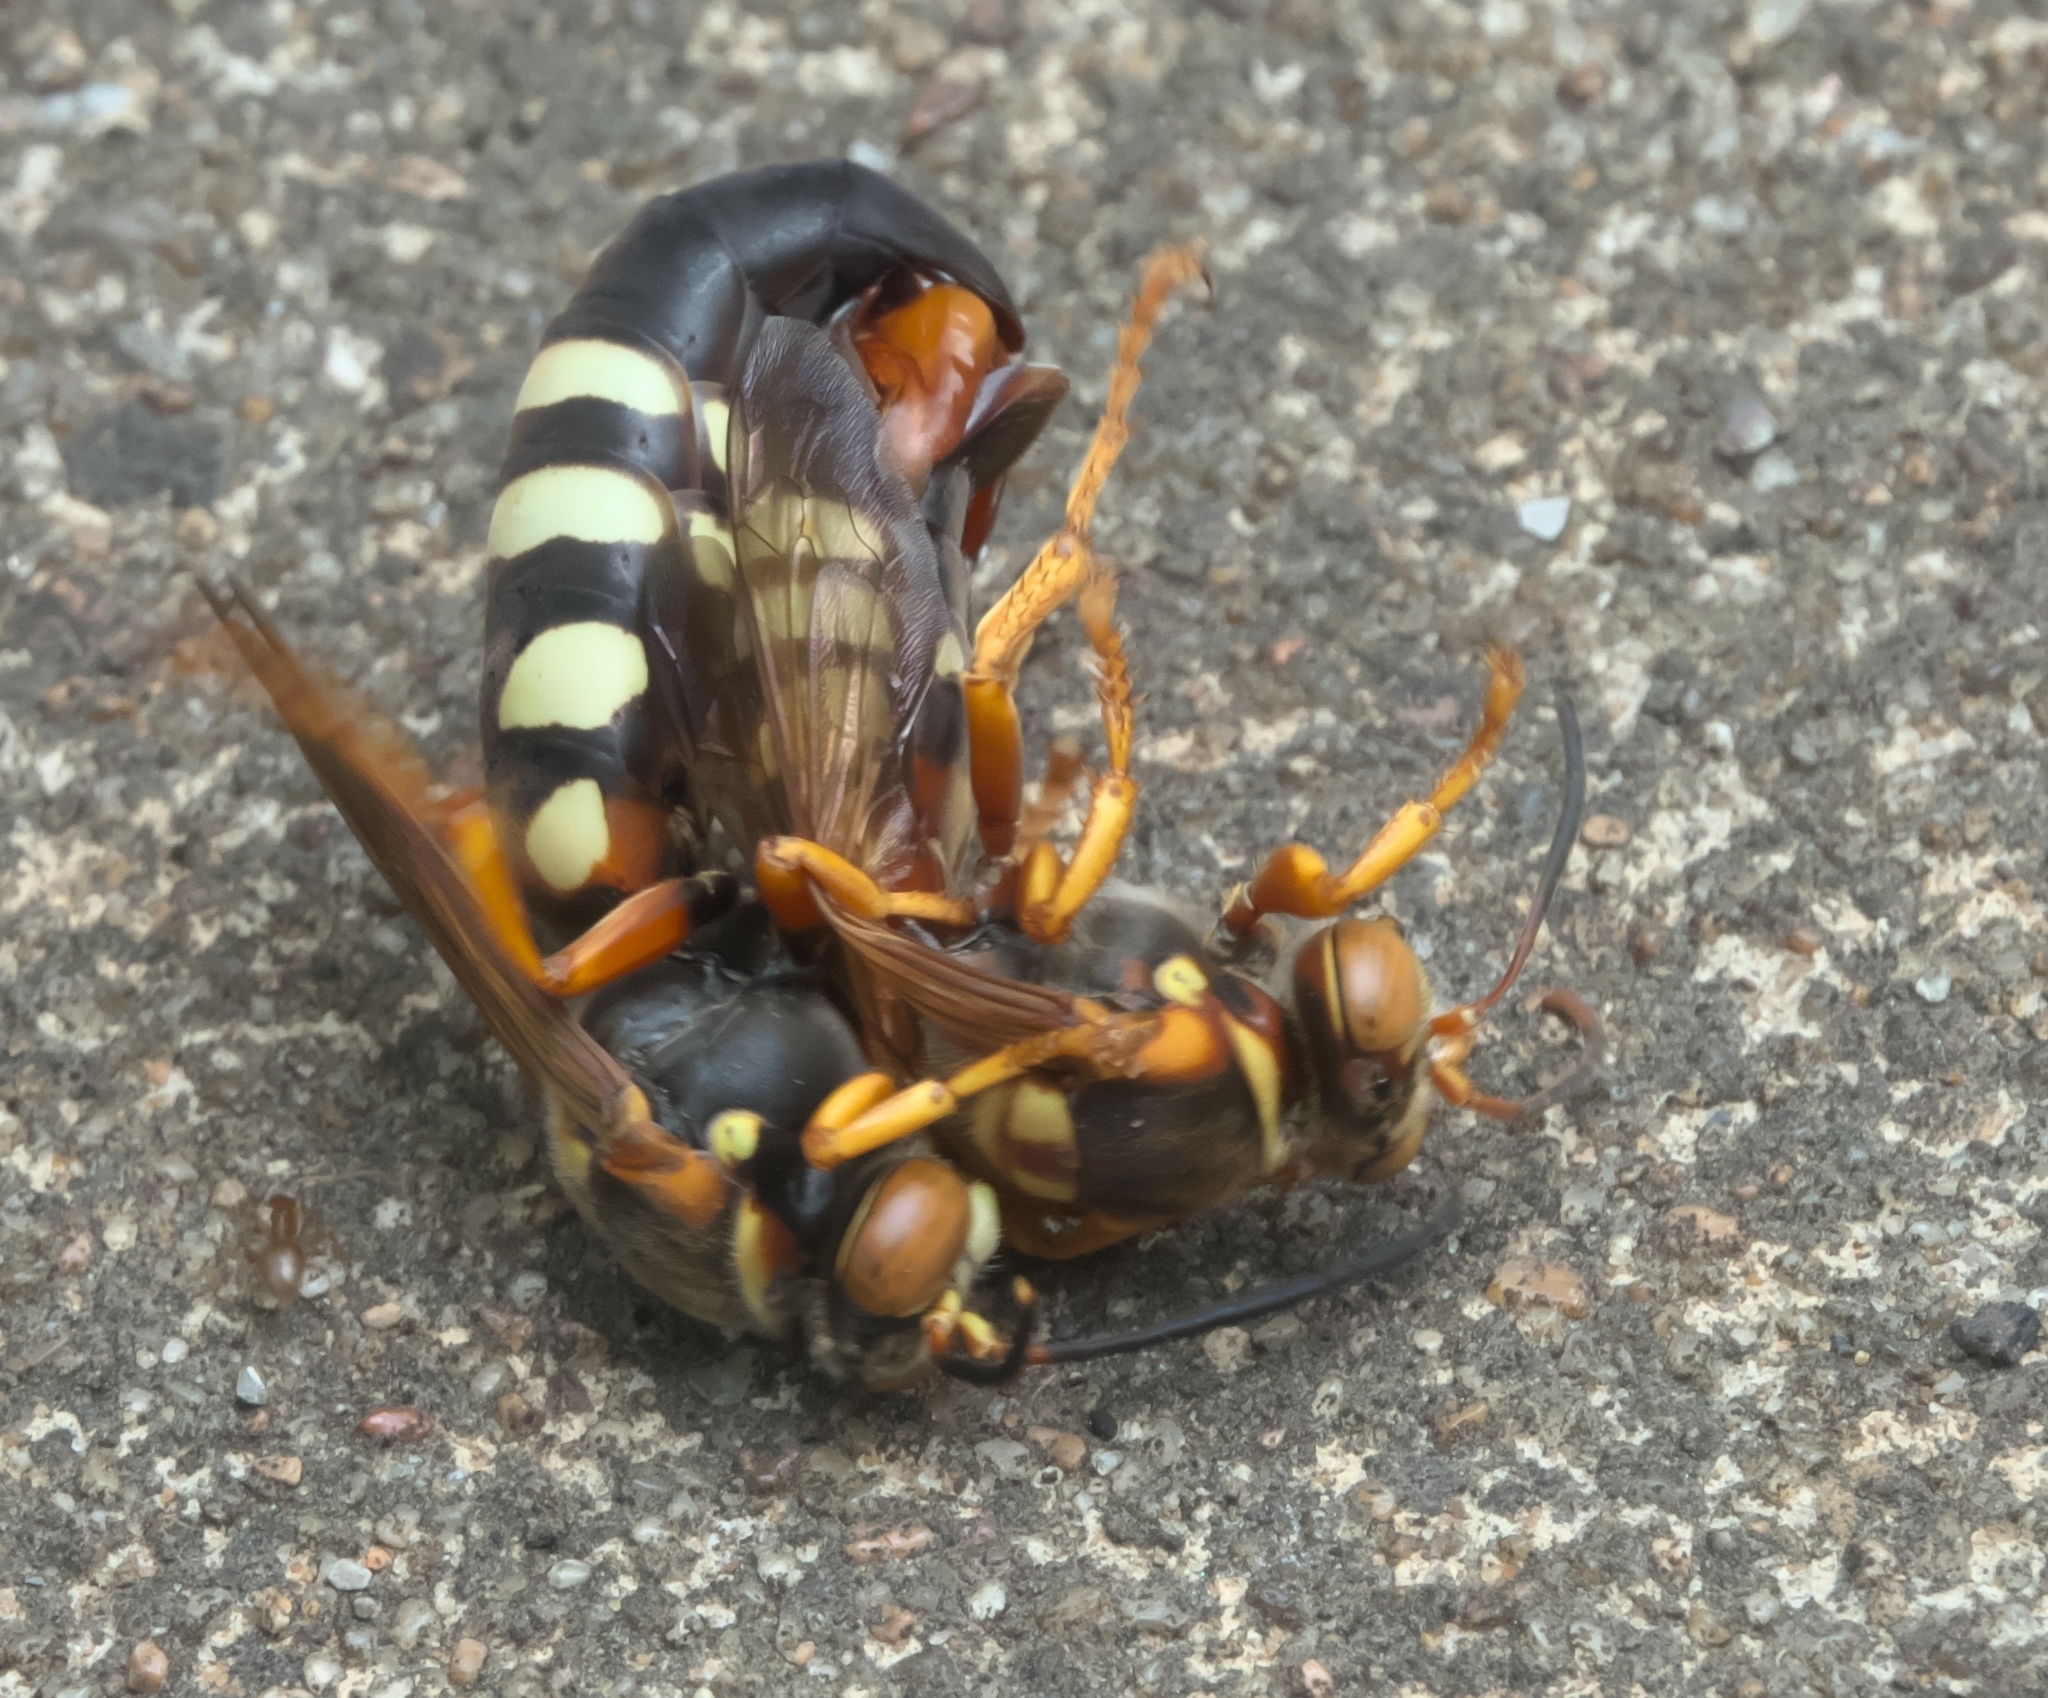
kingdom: Animalia
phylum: Arthropoda
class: Insecta
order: Hymenoptera
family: Crabronidae
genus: Stizus
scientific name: Stizus brevipennis
